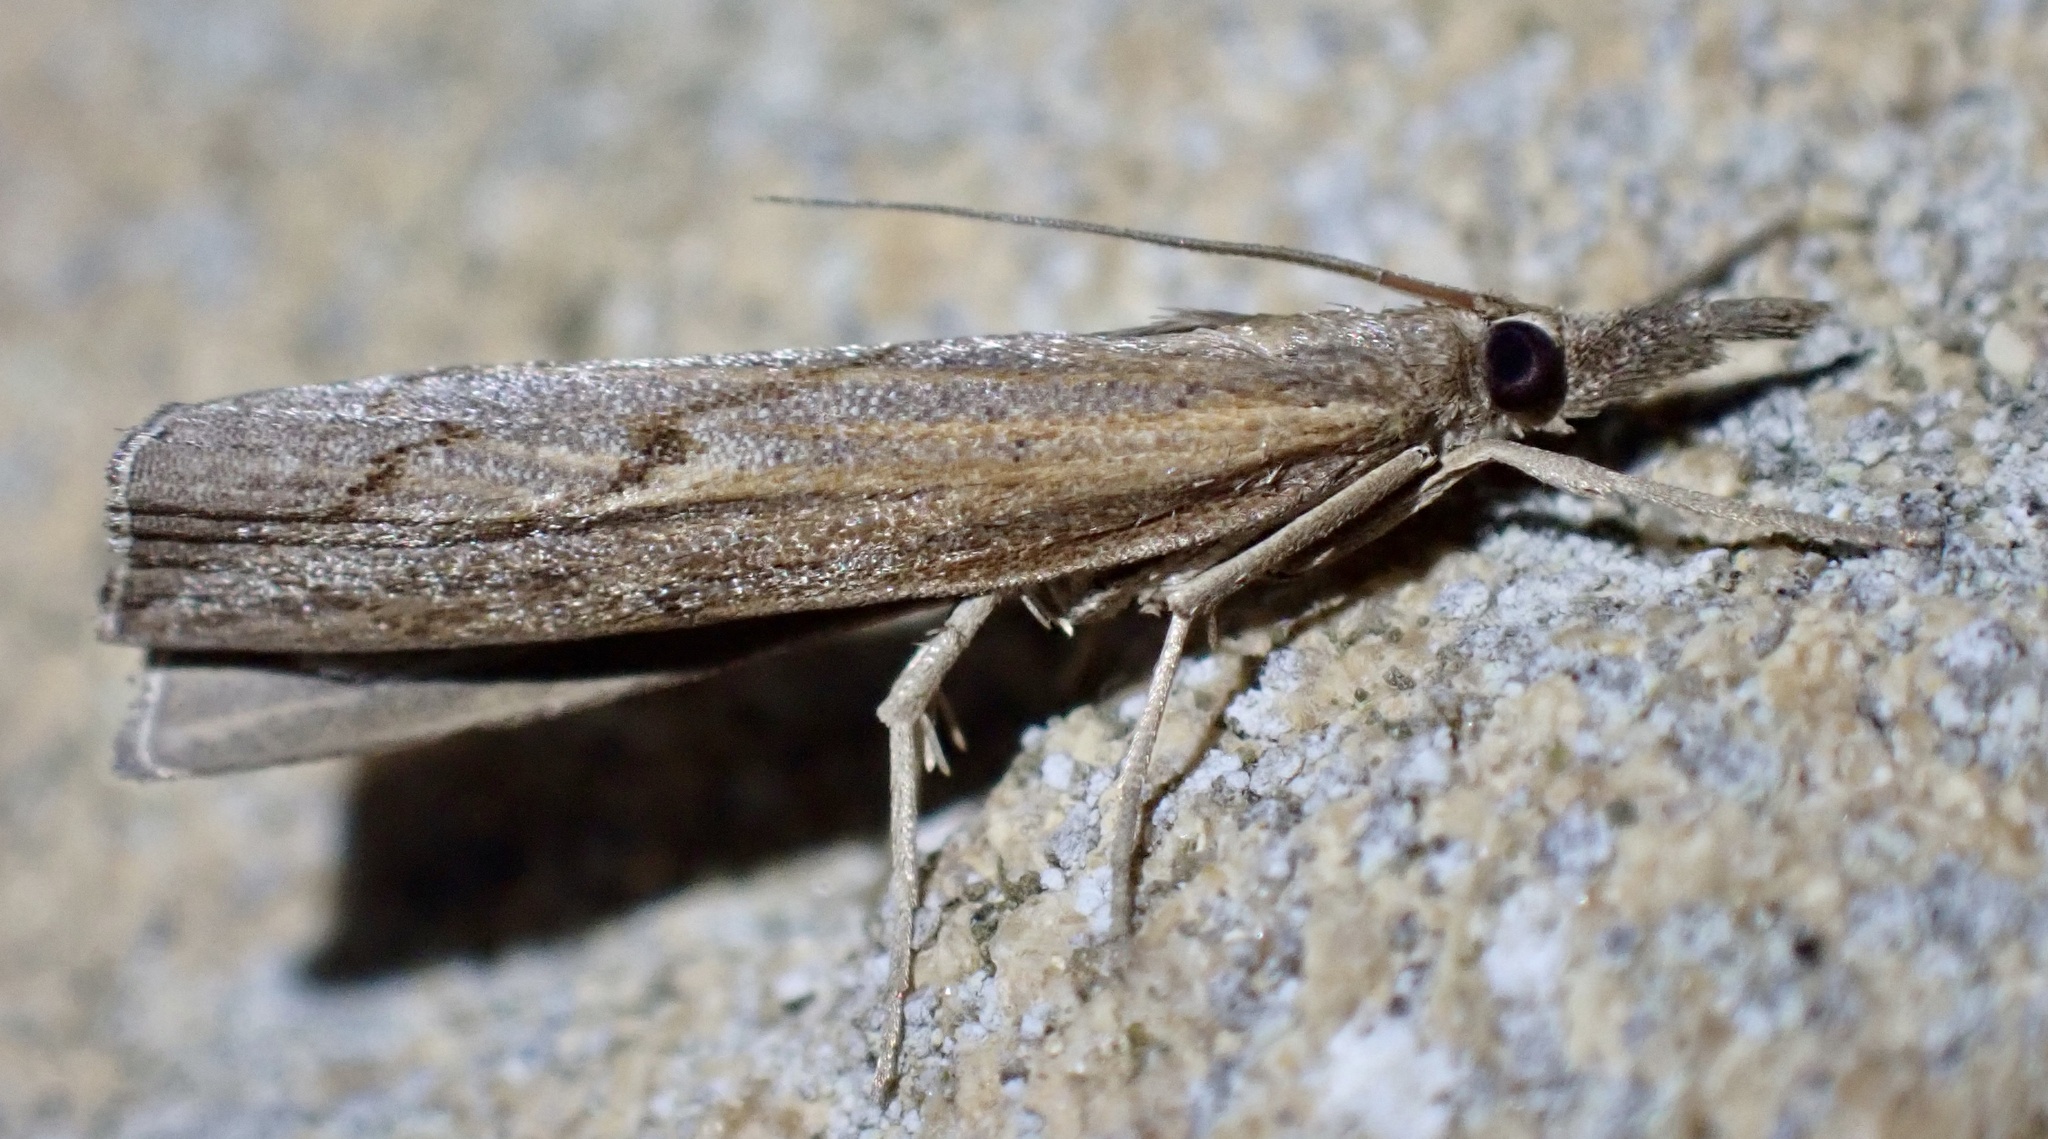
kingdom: Animalia
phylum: Arthropoda
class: Insecta
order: Lepidoptera
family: Crambidae
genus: Pediasia
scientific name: Pediasia contaminella
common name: Waste grass-veneer
